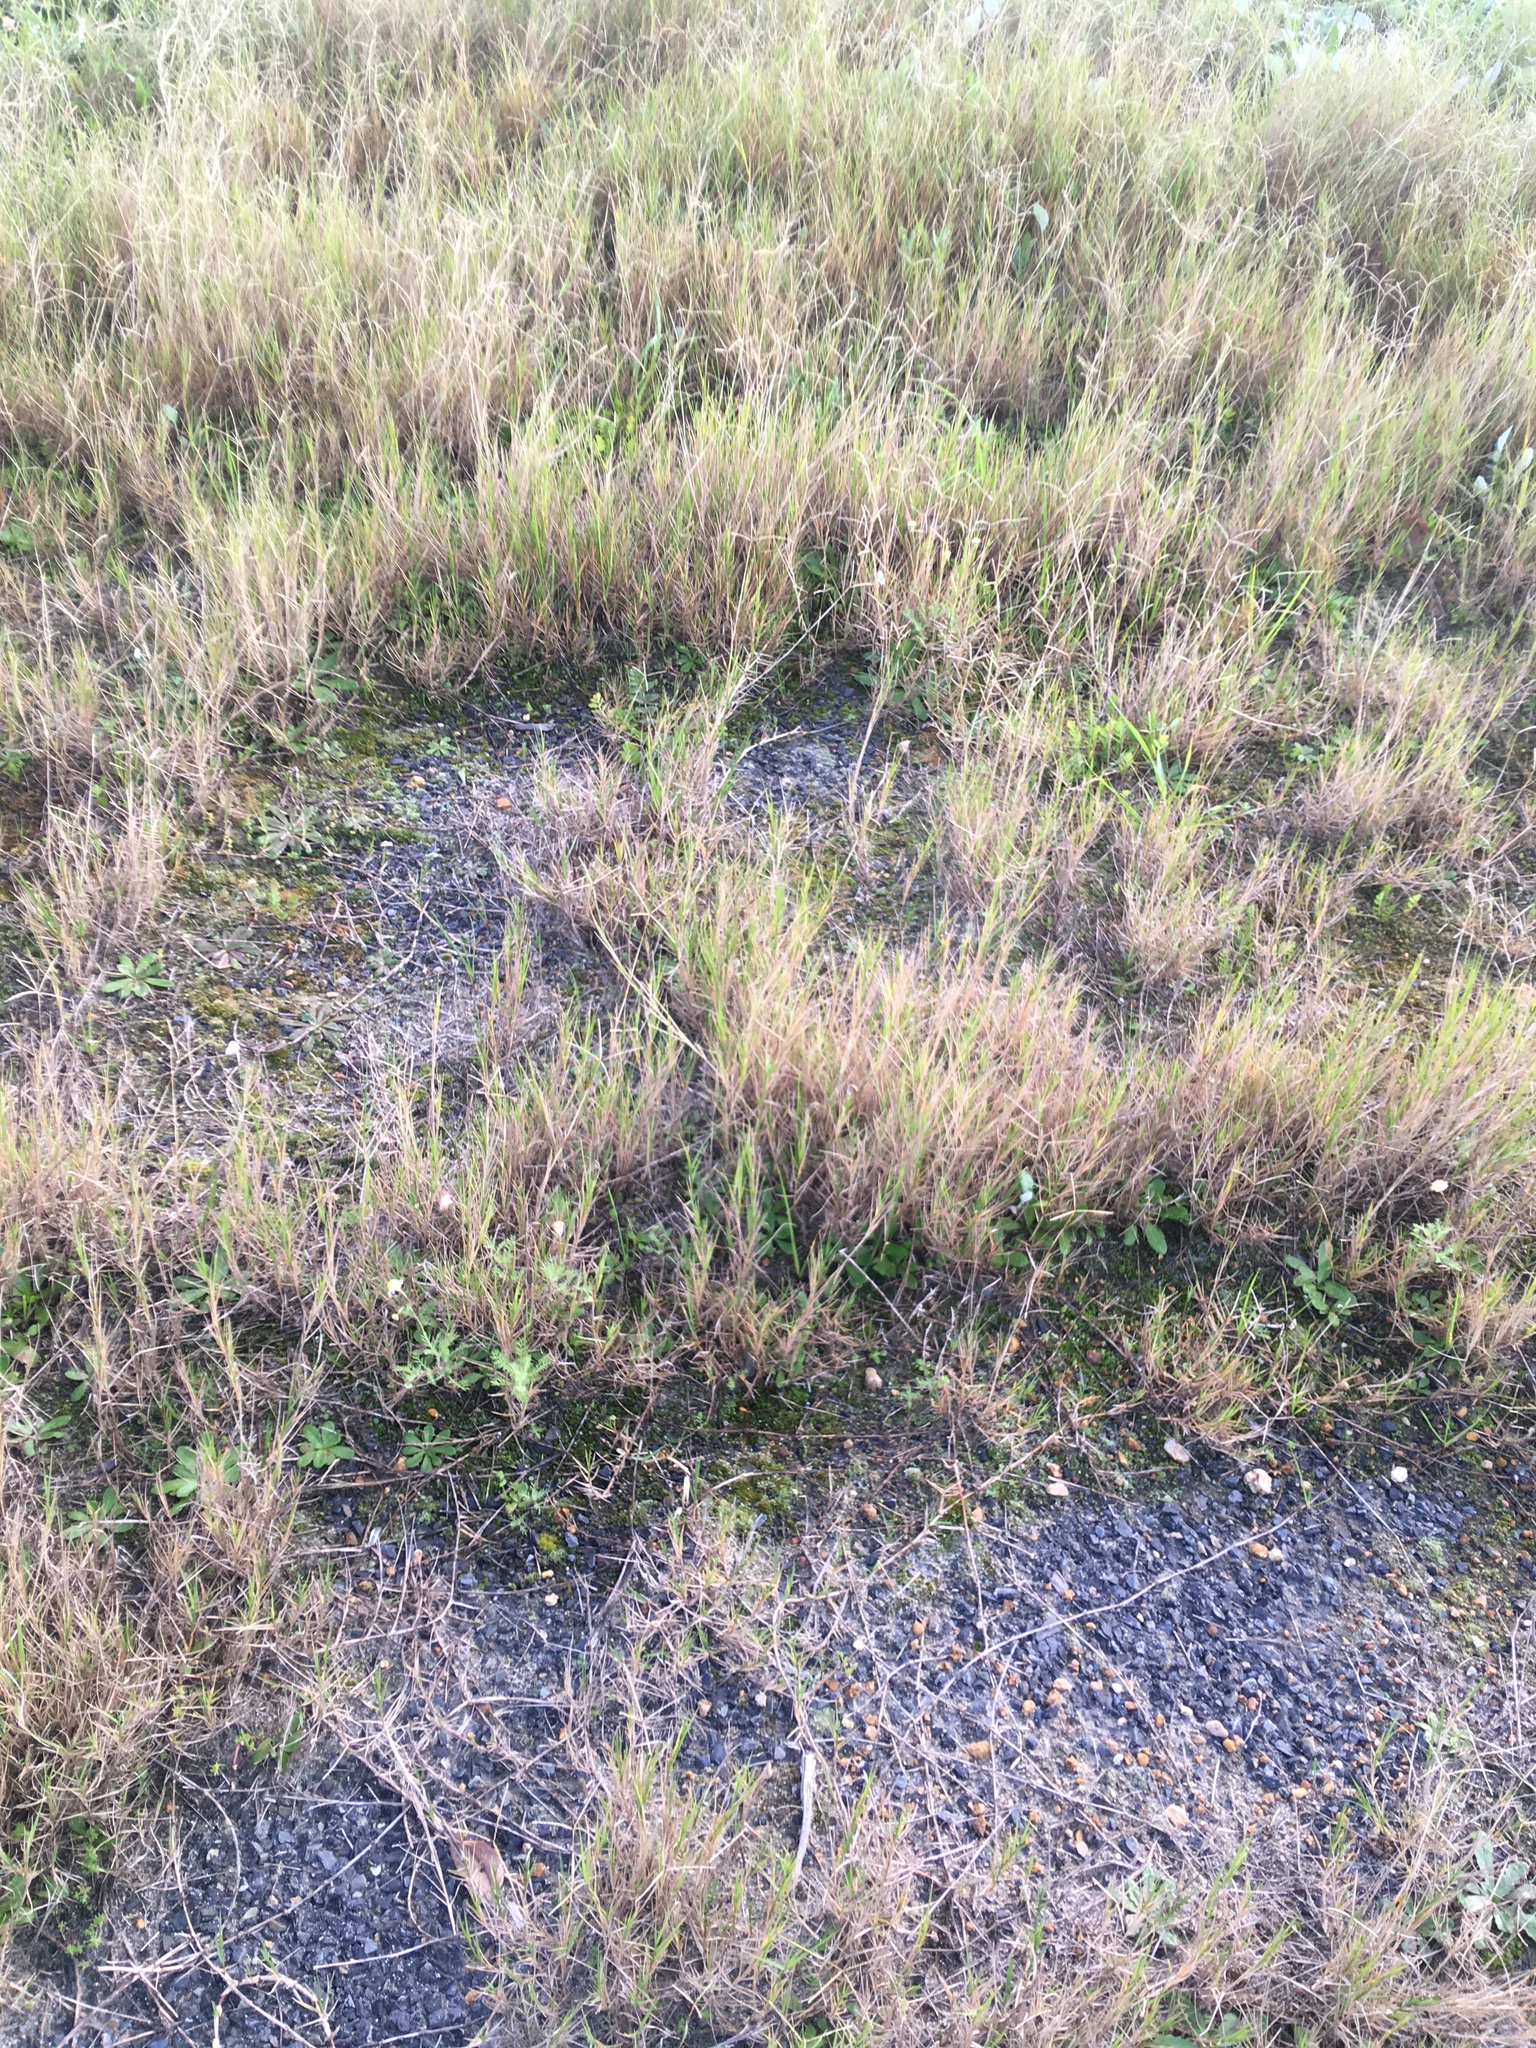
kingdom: Plantae
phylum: Bryophyta
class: Bryopsida
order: Pottiales
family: Pottiaceae
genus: Syntrichia
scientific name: Syntrichia ruralis
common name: Sidewalk screw moss
